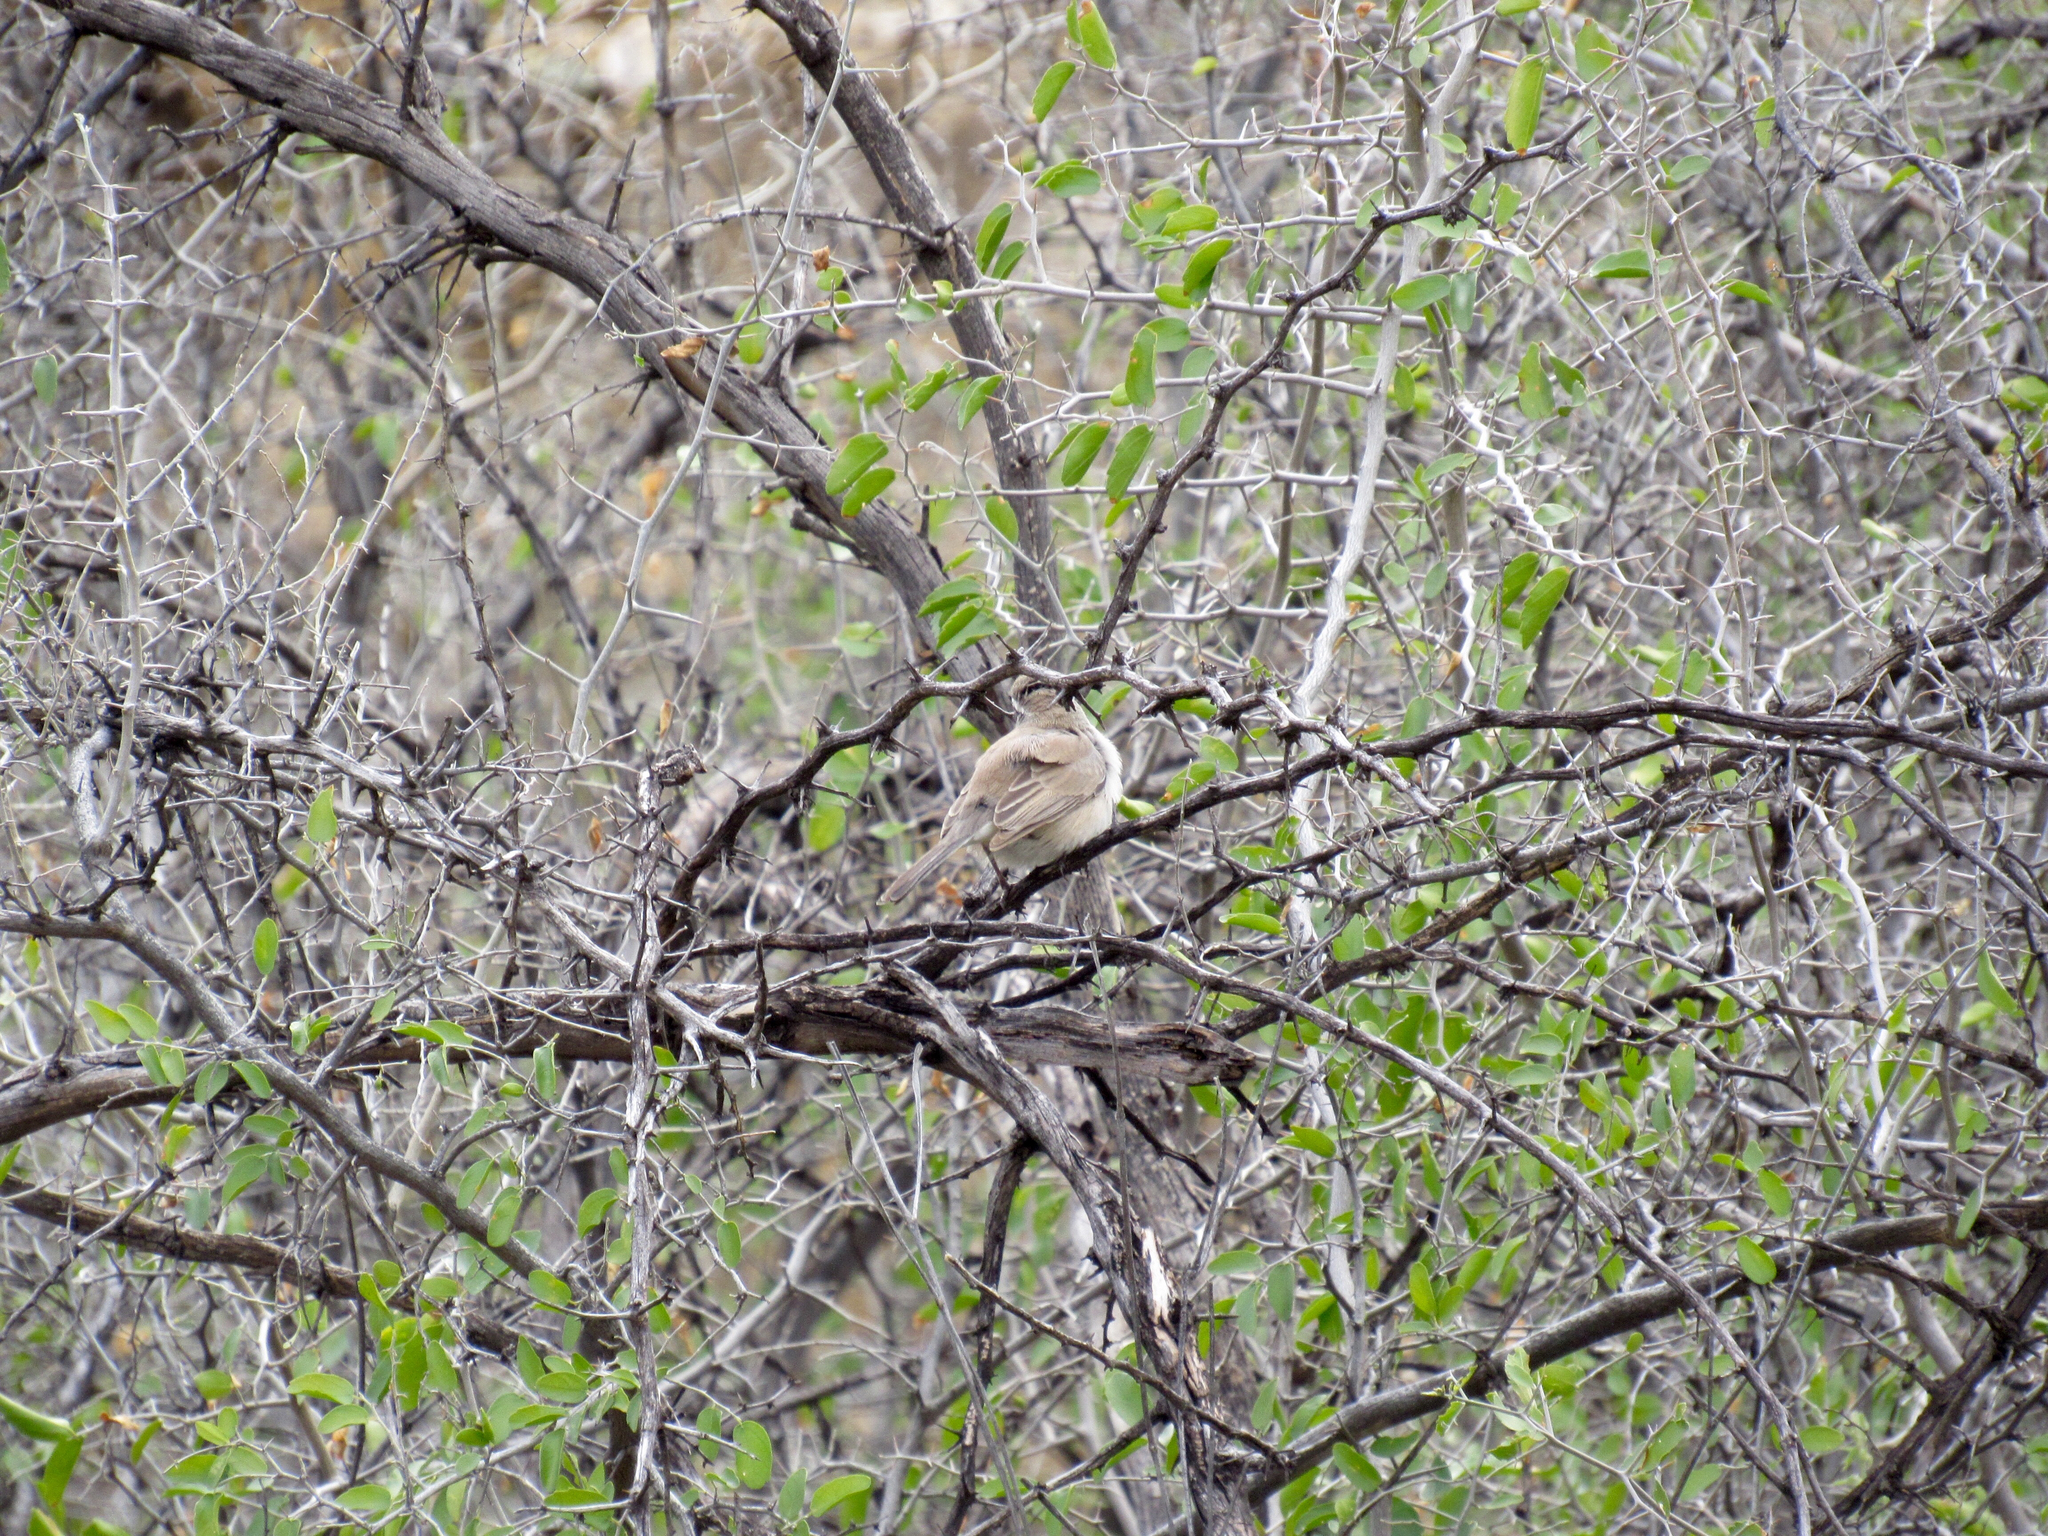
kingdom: Animalia
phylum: Chordata
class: Aves
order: Passeriformes
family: Passerellidae
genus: Amphispiza
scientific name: Amphispiza bilineata
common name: Black-throated sparrow
